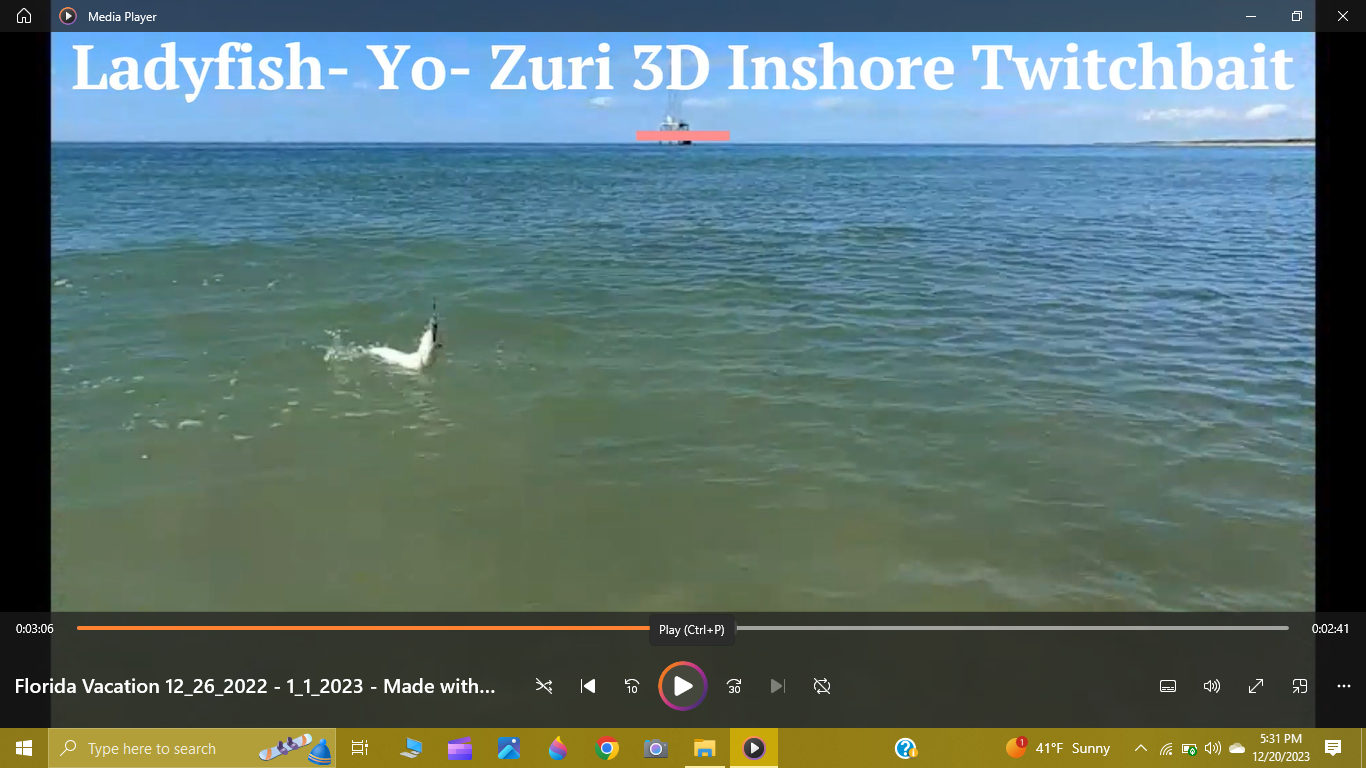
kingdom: Animalia
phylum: Chordata
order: Elopiformes
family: Elopidae
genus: Elops
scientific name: Elops saurus
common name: Ladyfish
